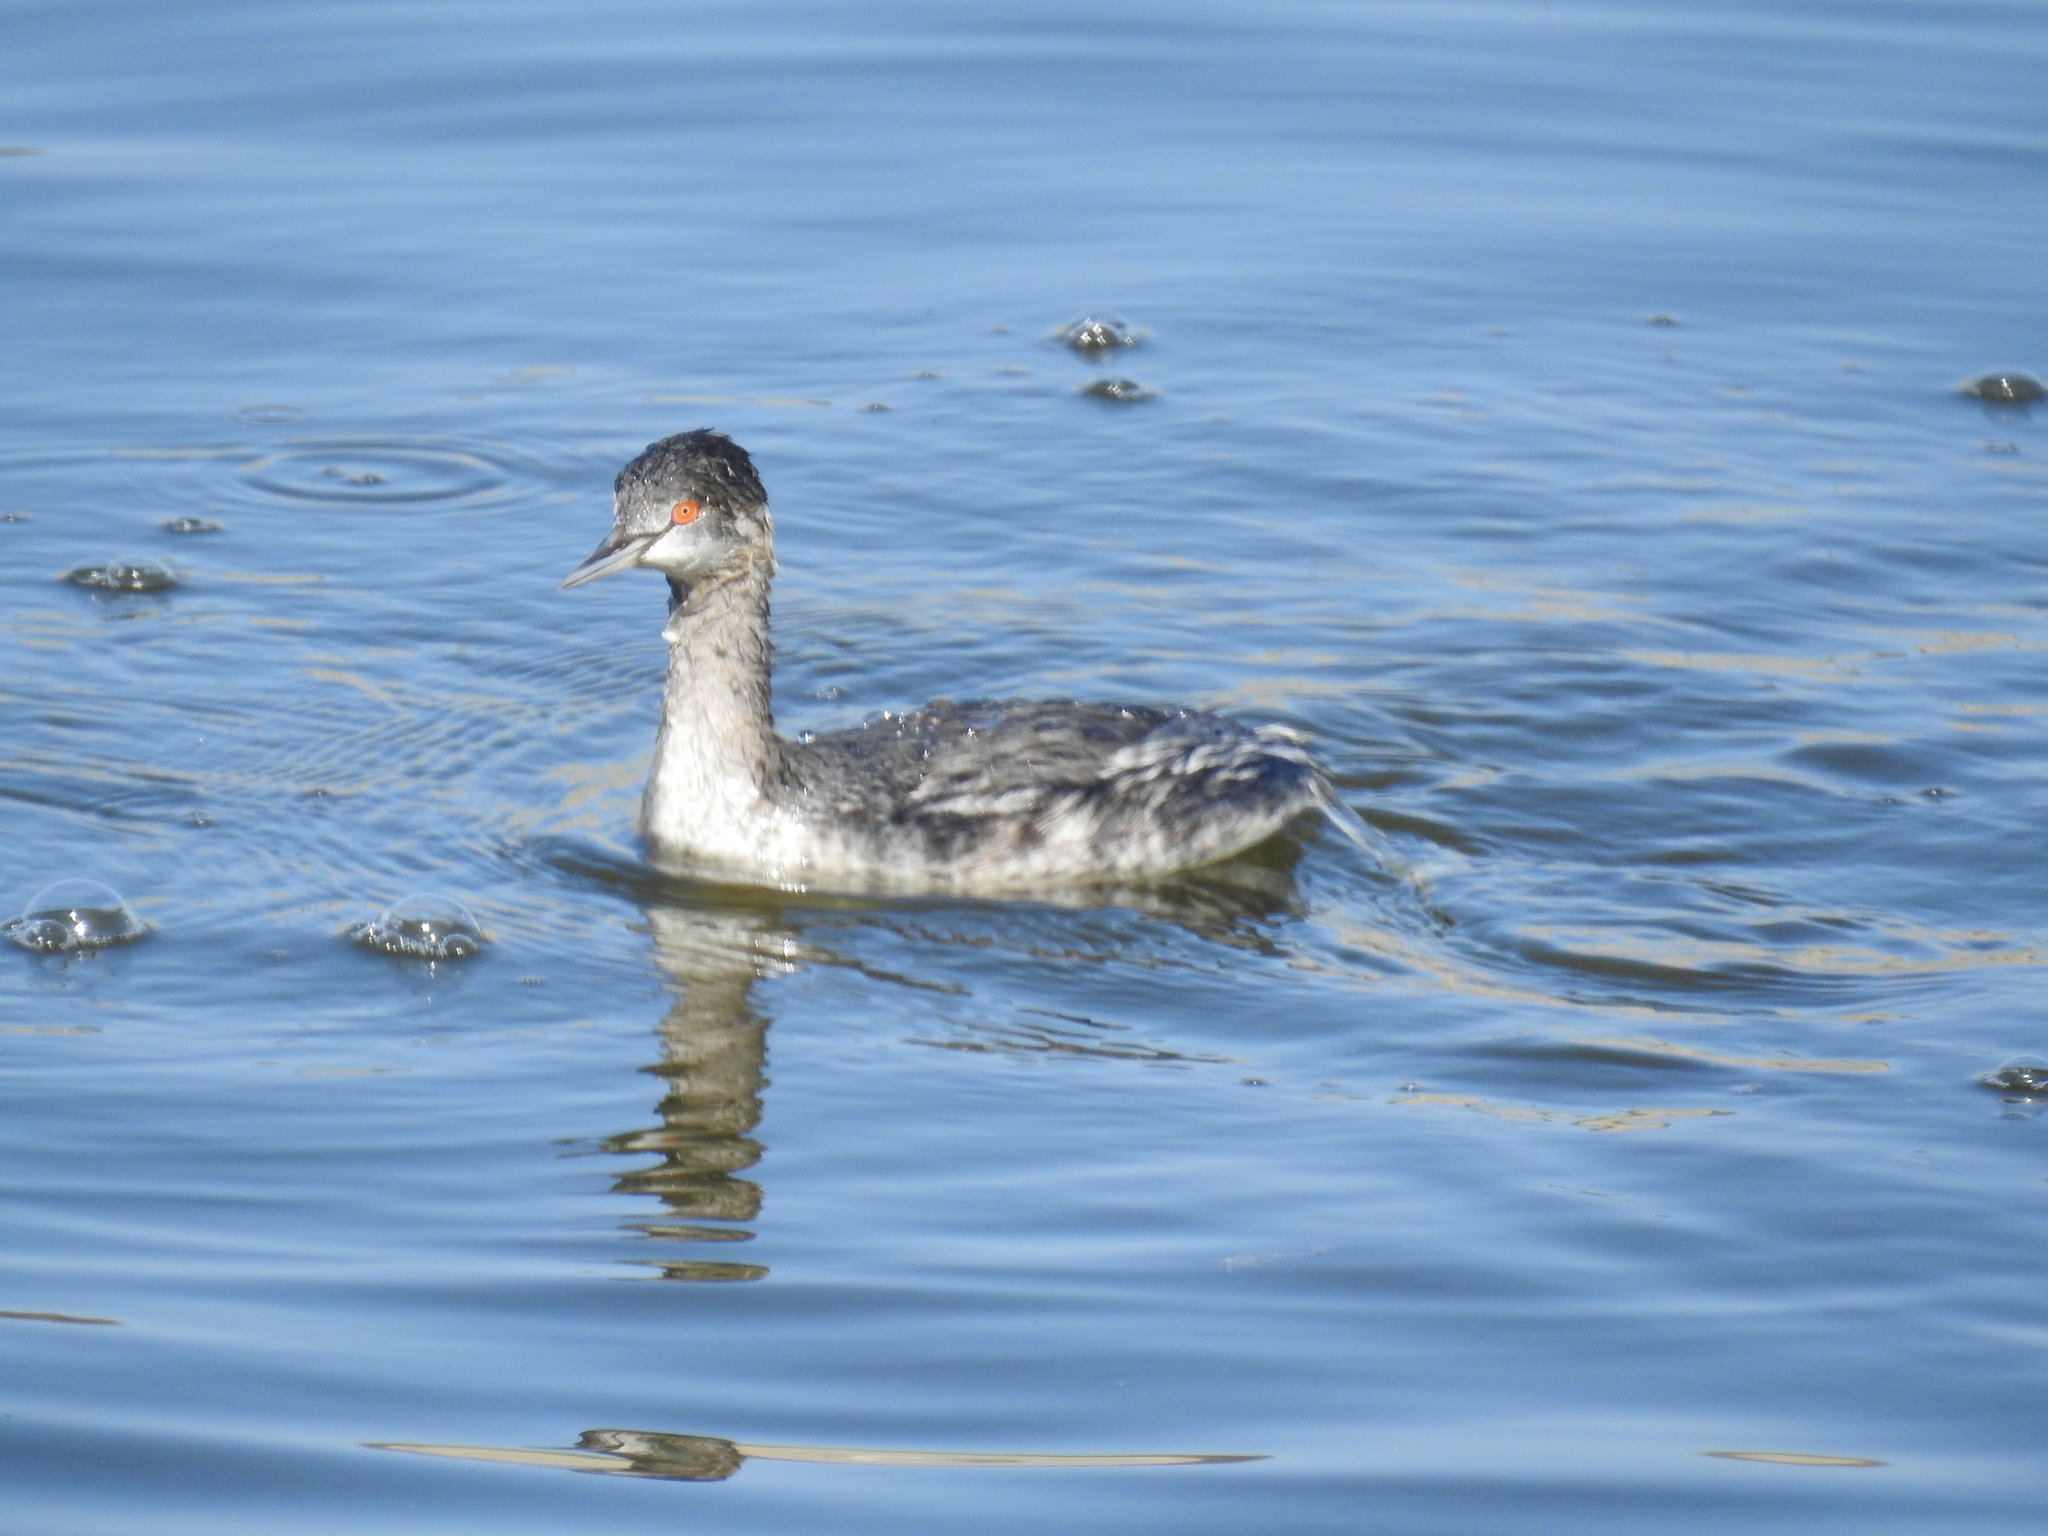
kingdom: Animalia
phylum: Chordata
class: Aves
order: Podicipediformes
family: Podicipedidae
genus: Podiceps
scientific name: Podiceps nigricollis
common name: Black-necked grebe
